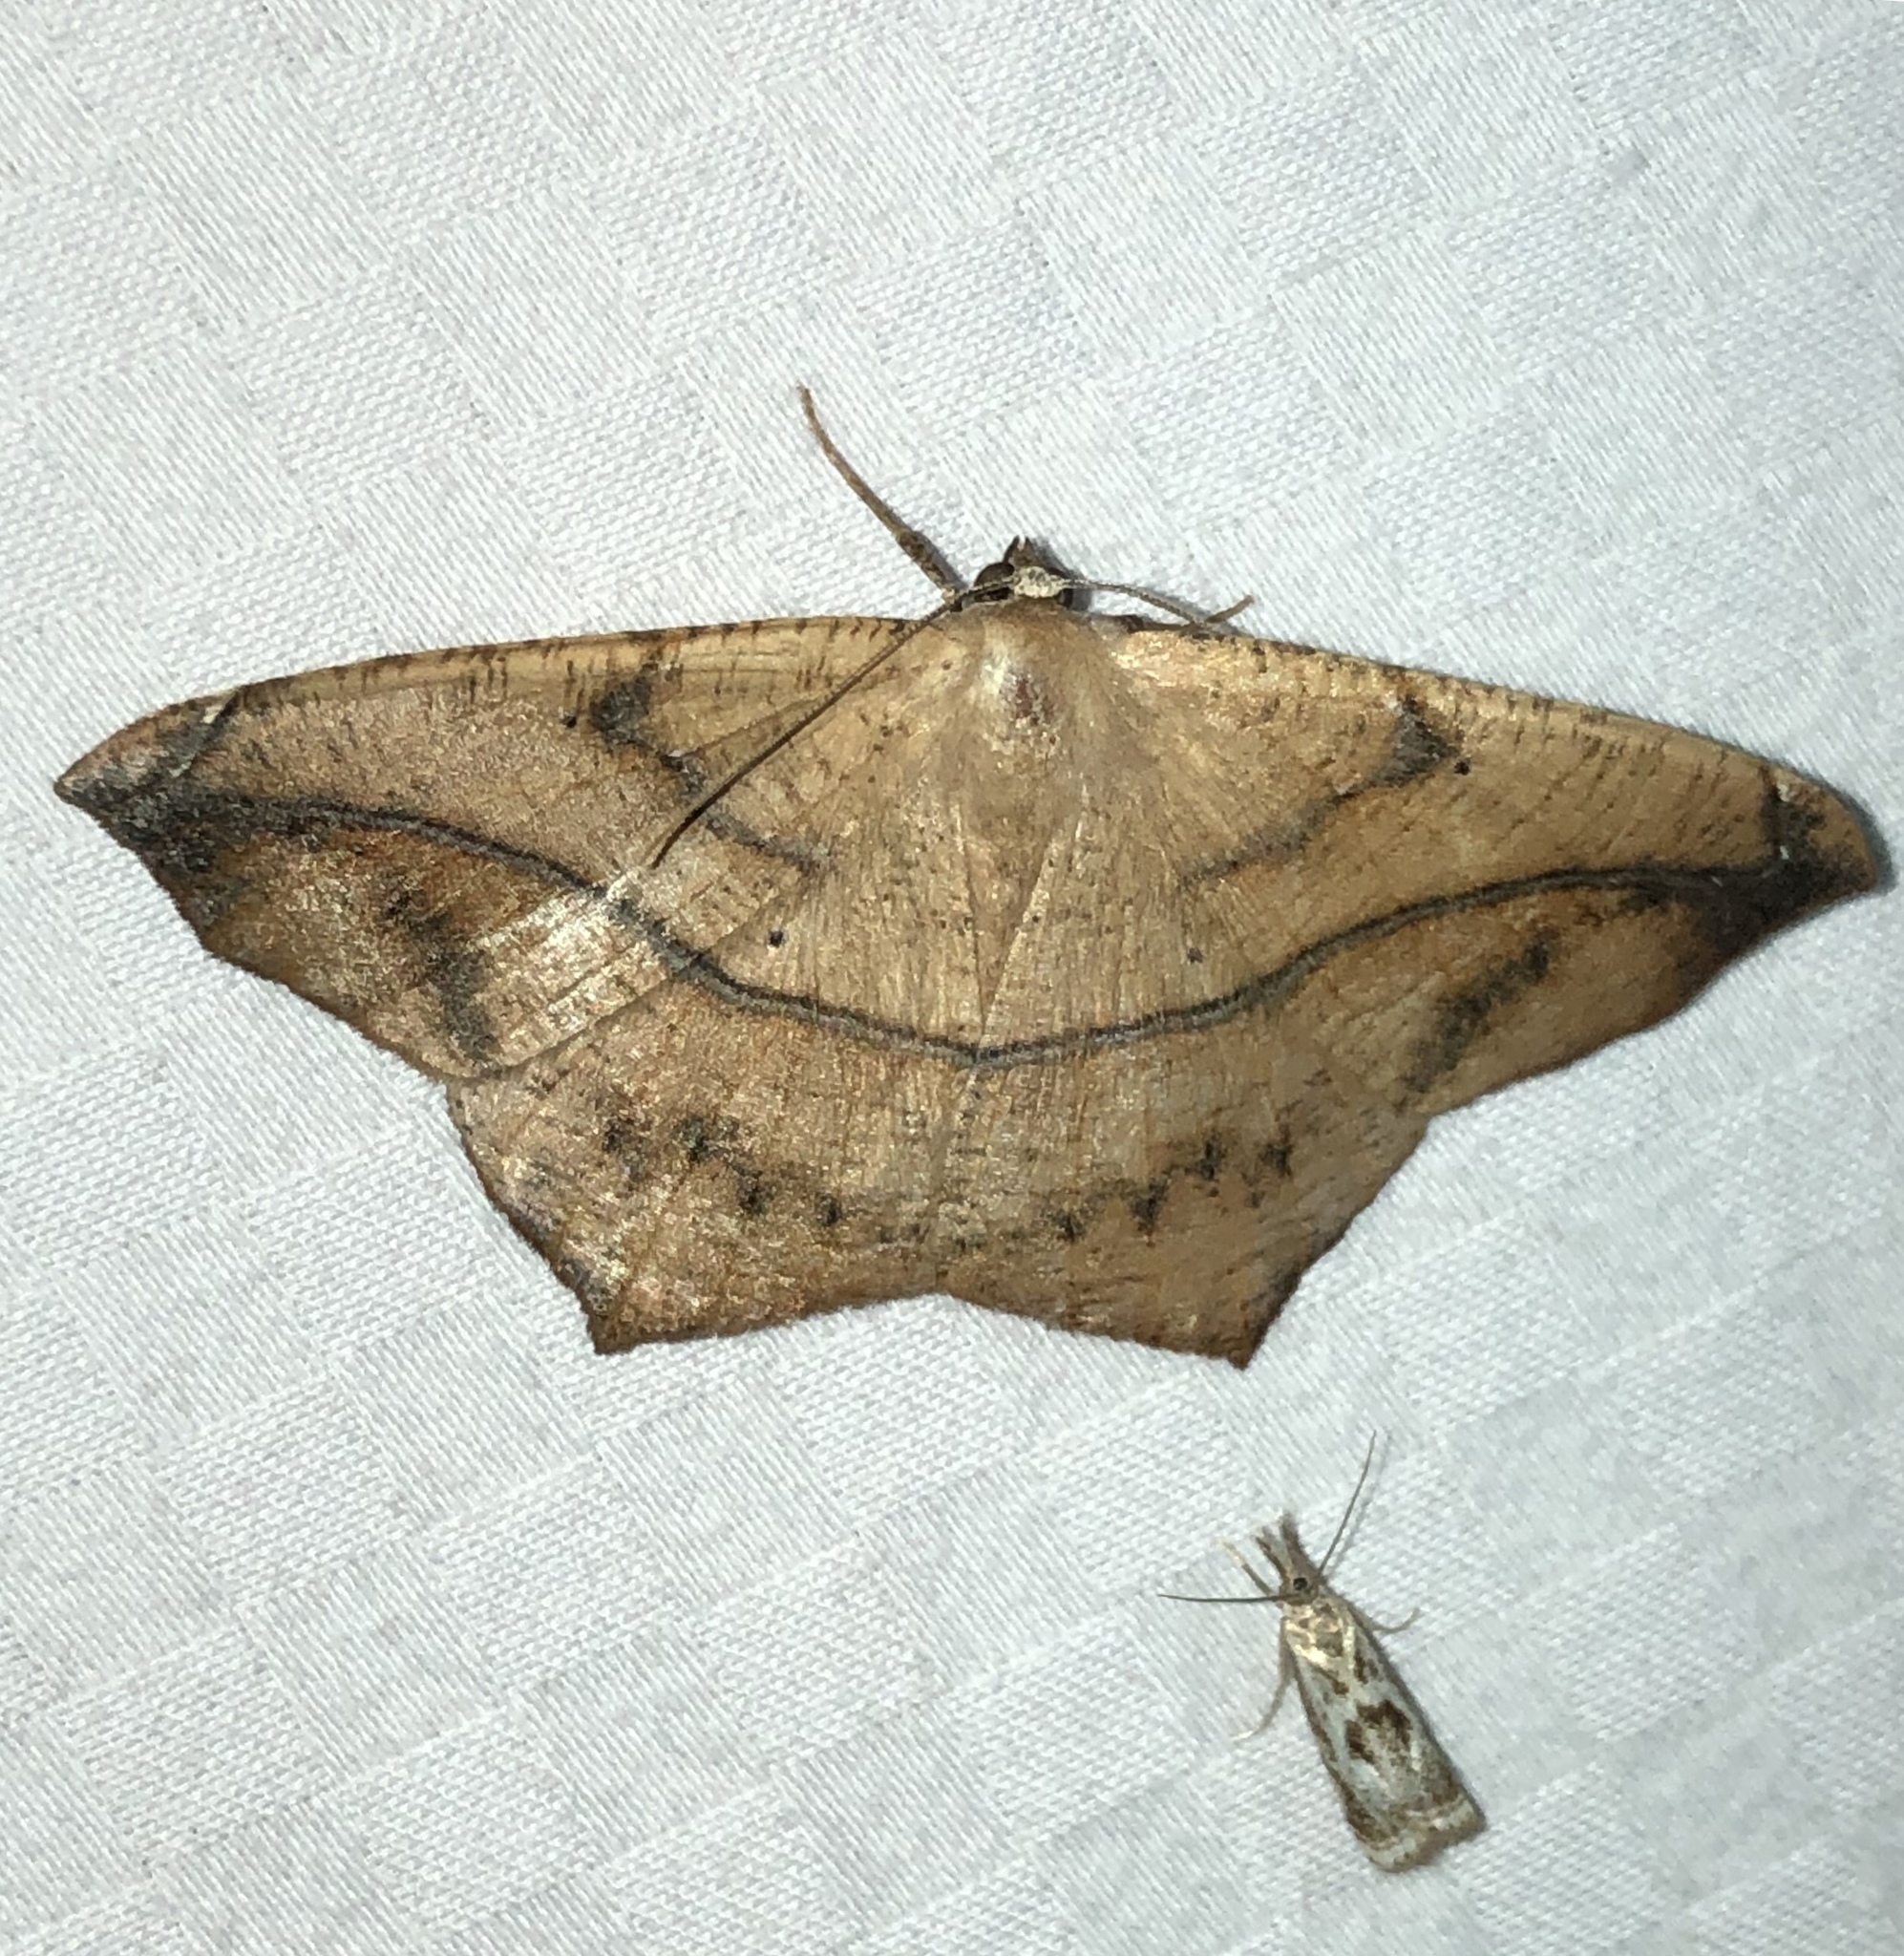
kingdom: Animalia
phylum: Arthropoda
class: Insecta
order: Lepidoptera
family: Geometridae
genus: Prochoerodes
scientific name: Prochoerodes lineola
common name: Large maple spanworm
